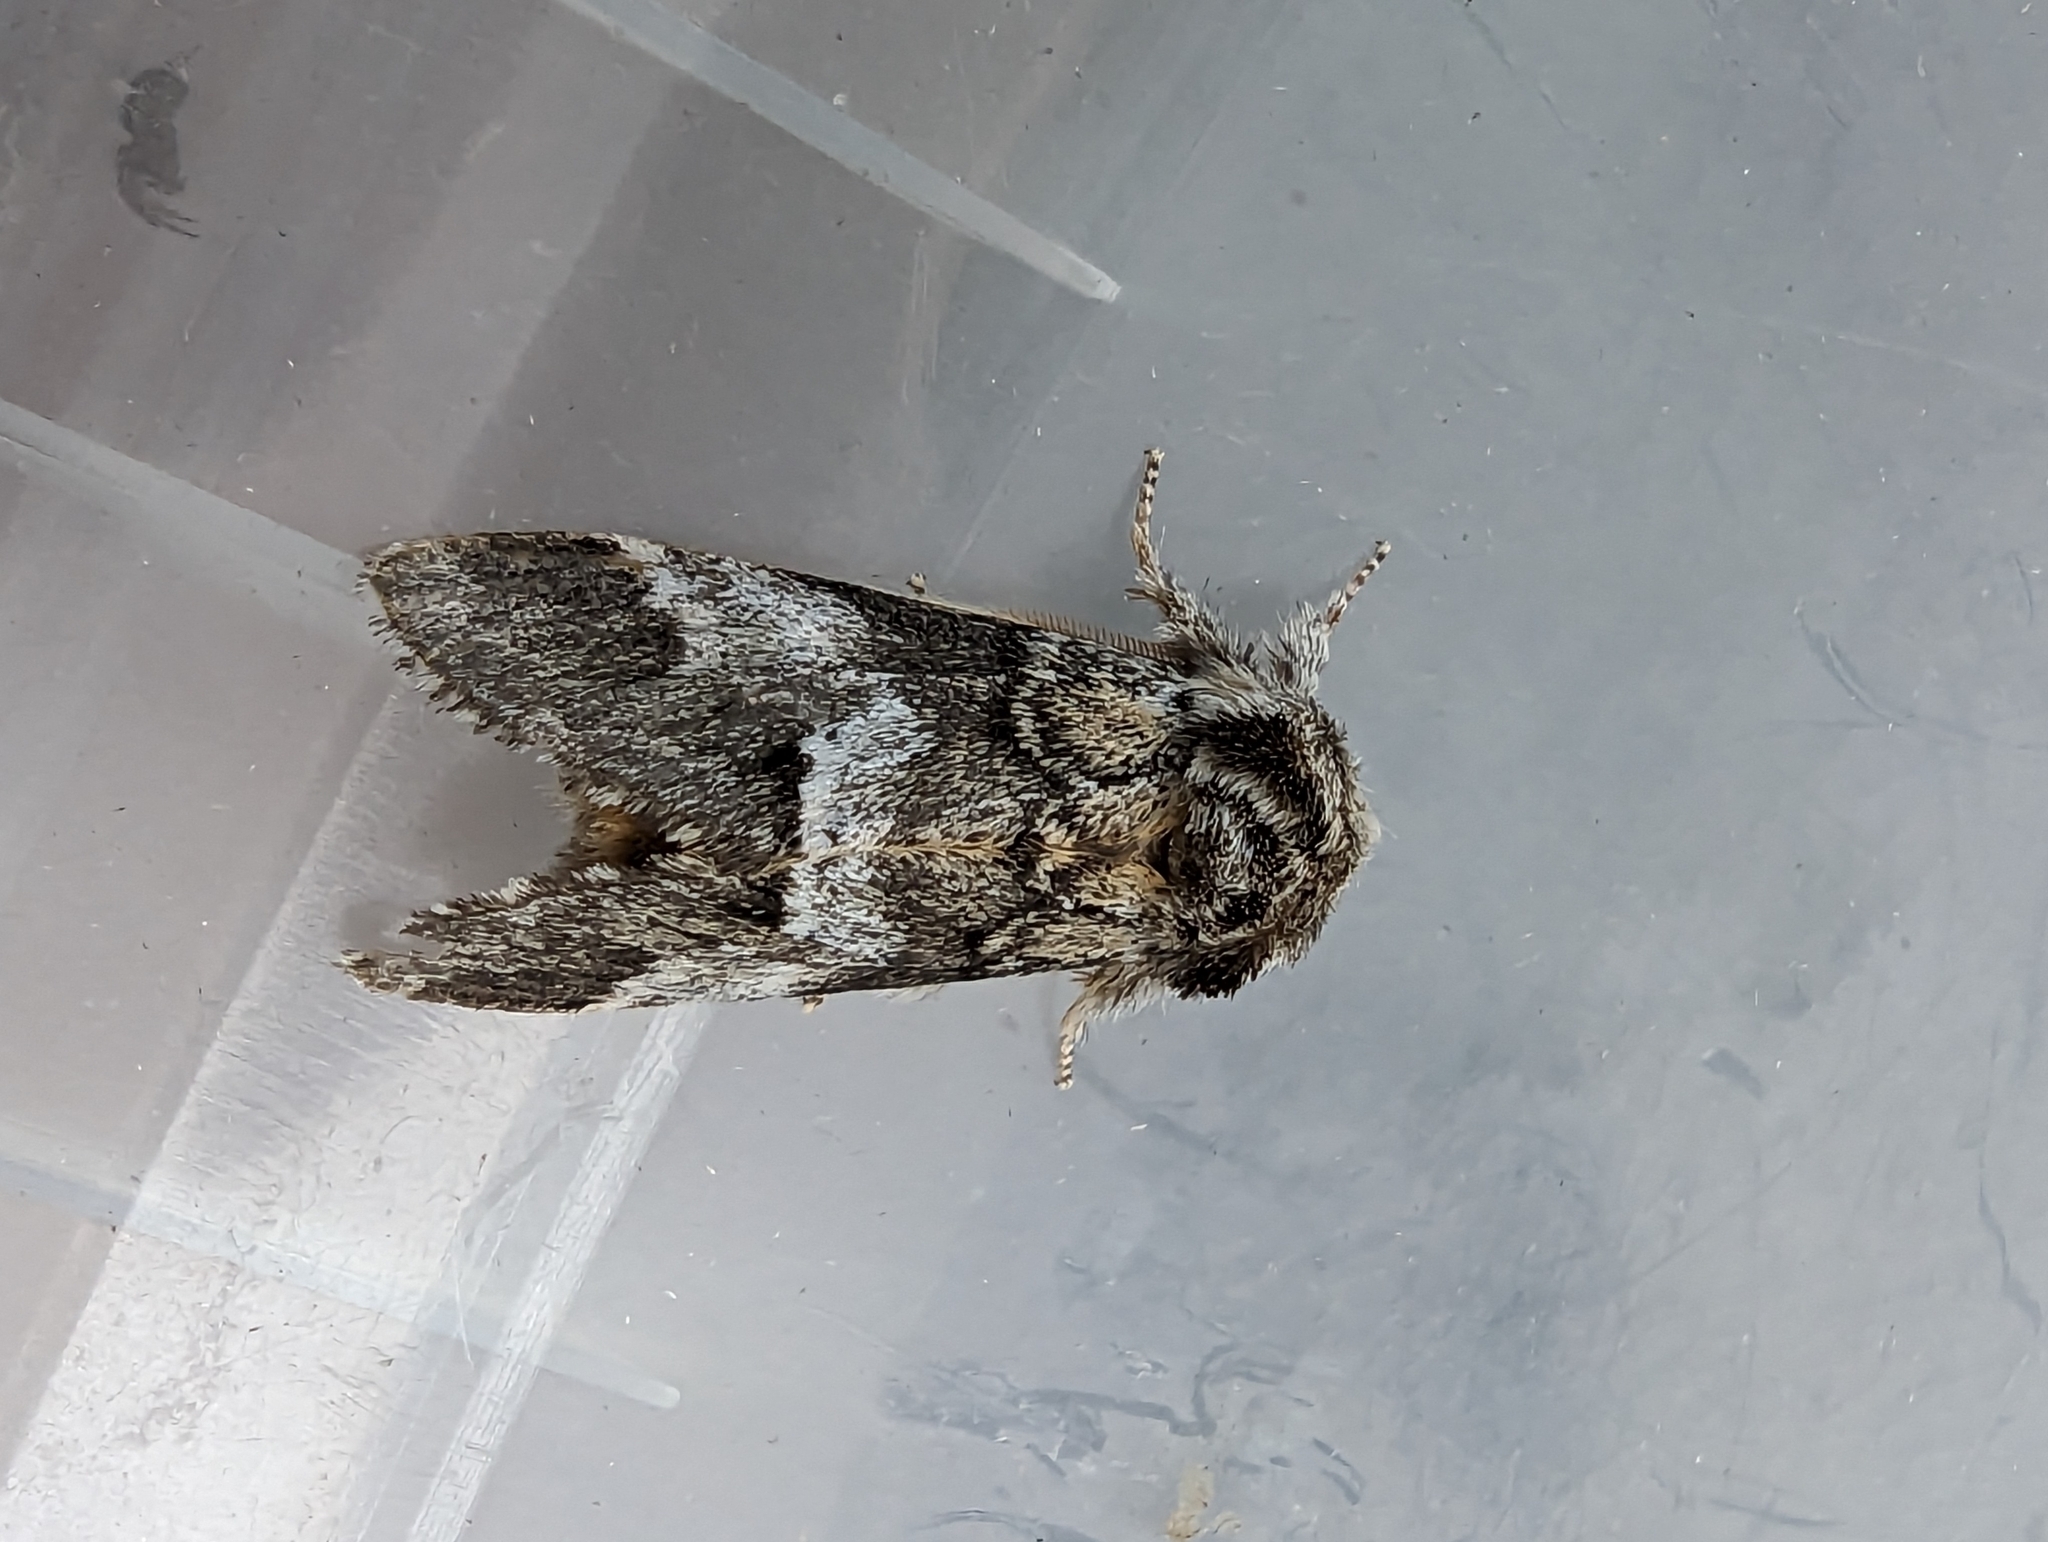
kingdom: Animalia
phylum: Arthropoda
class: Insecta
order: Lepidoptera
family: Notodontidae
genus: Drymonia
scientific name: Drymonia dodonaea
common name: Marbled brown
